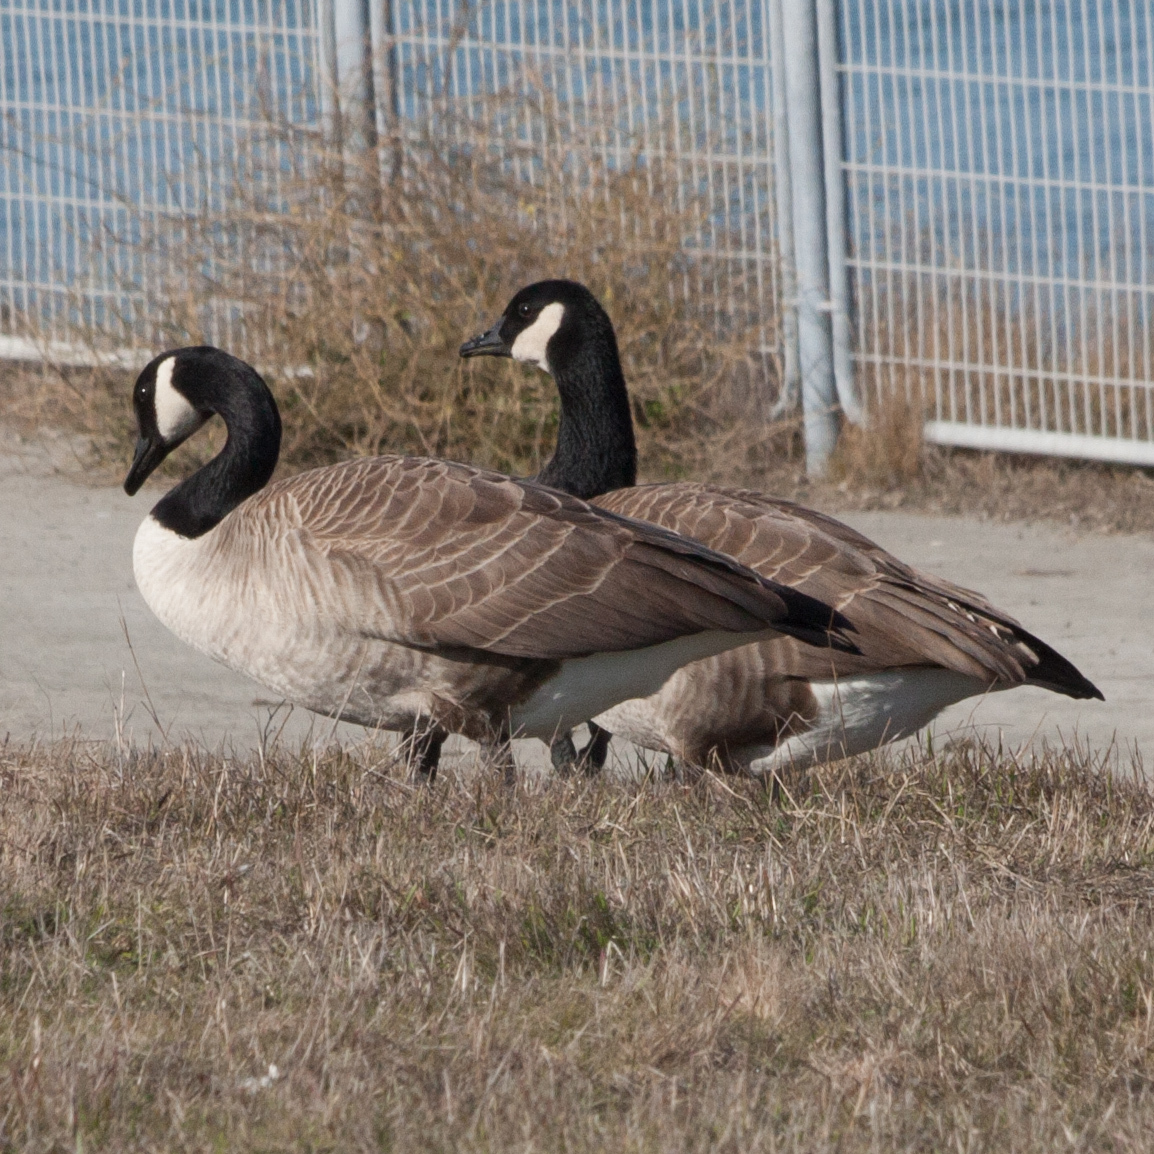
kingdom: Animalia
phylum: Chordata
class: Aves
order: Anseriformes
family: Anatidae
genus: Branta
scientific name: Branta canadensis
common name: Canada goose
